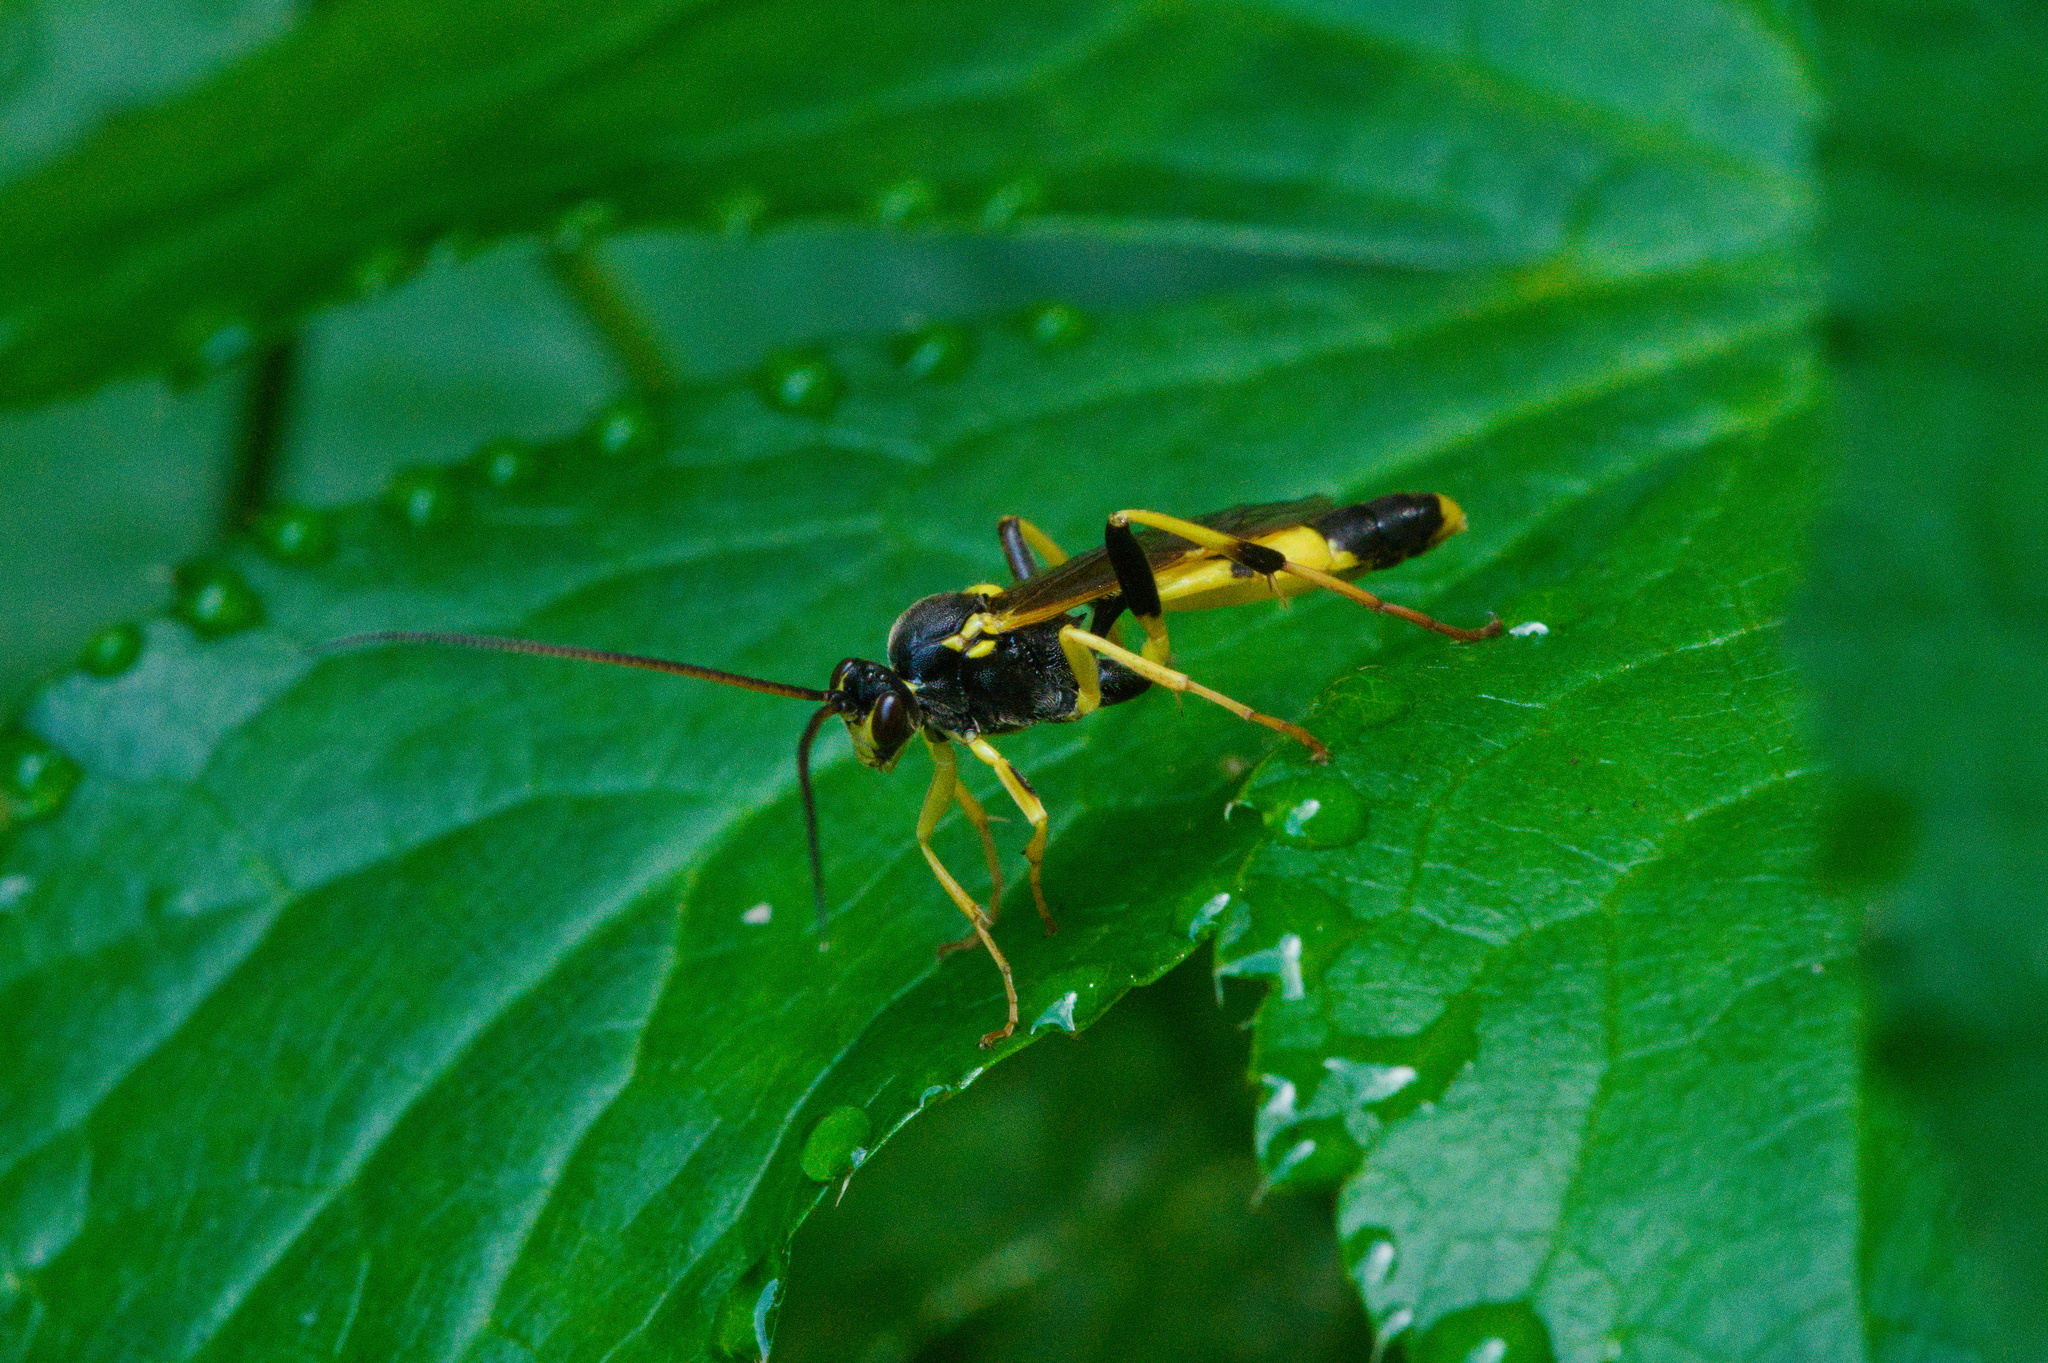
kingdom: Animalia
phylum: Arthropoda
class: Insecta
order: Hymenoptera
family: Ichneumonidae
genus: Amblyteles
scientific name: Amblyteles armatorius
